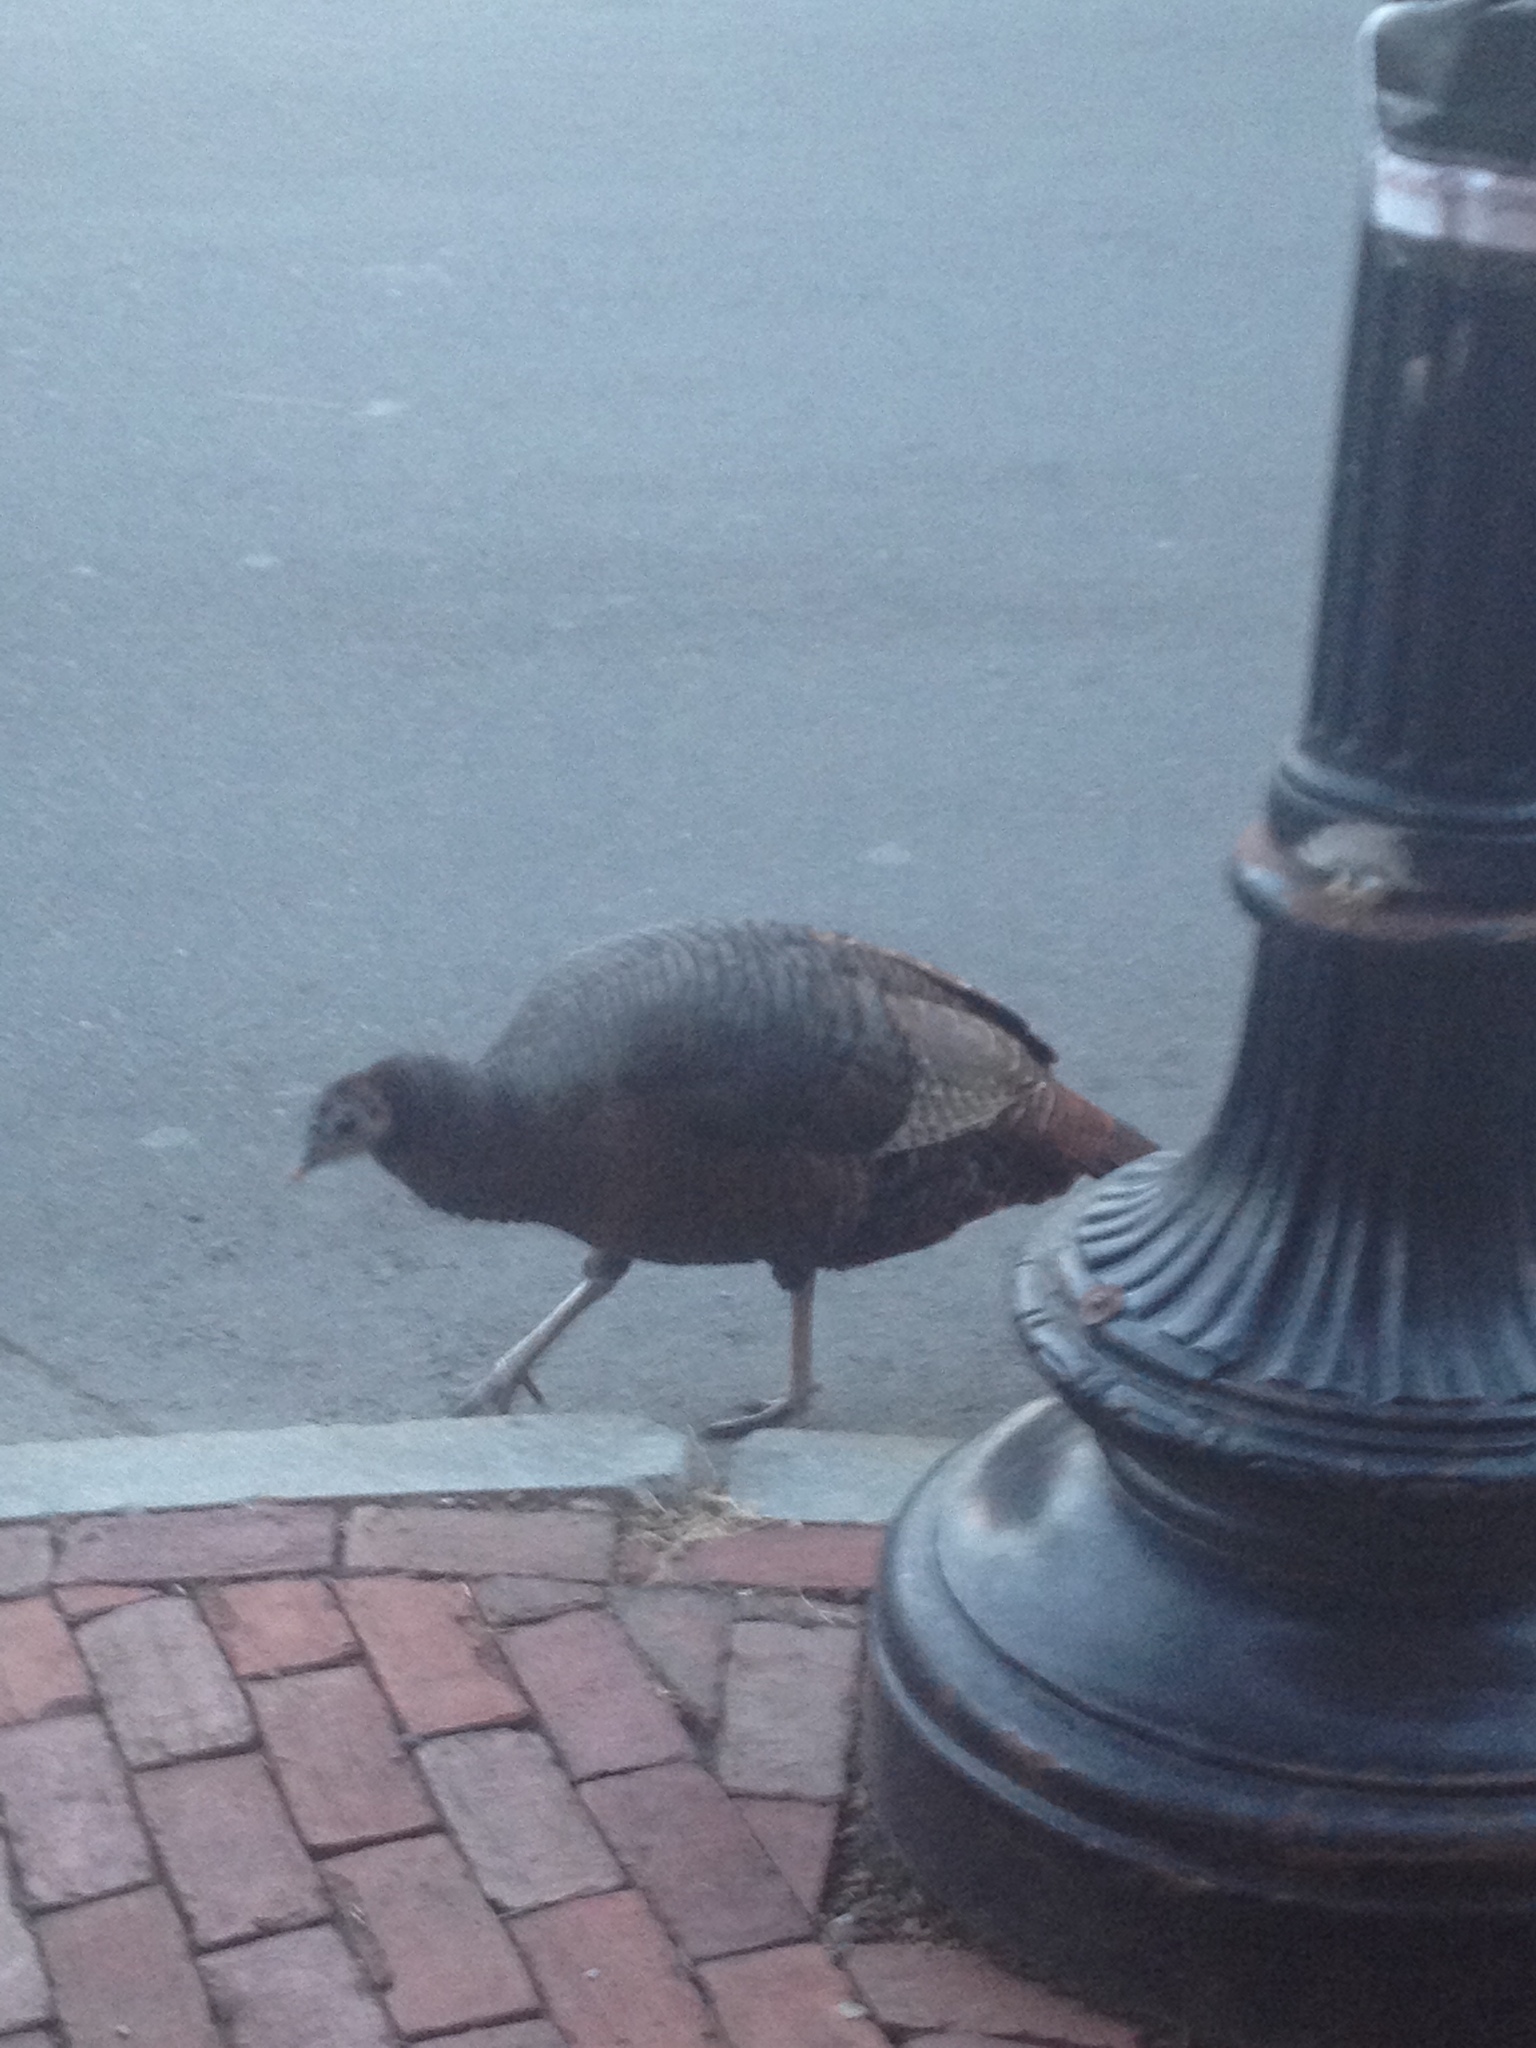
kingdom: Animalia
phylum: Chordata
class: Aves
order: Galliformes
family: Phasianidae
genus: Meleagris
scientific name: Meleagris gallopavo
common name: Wild turkey
